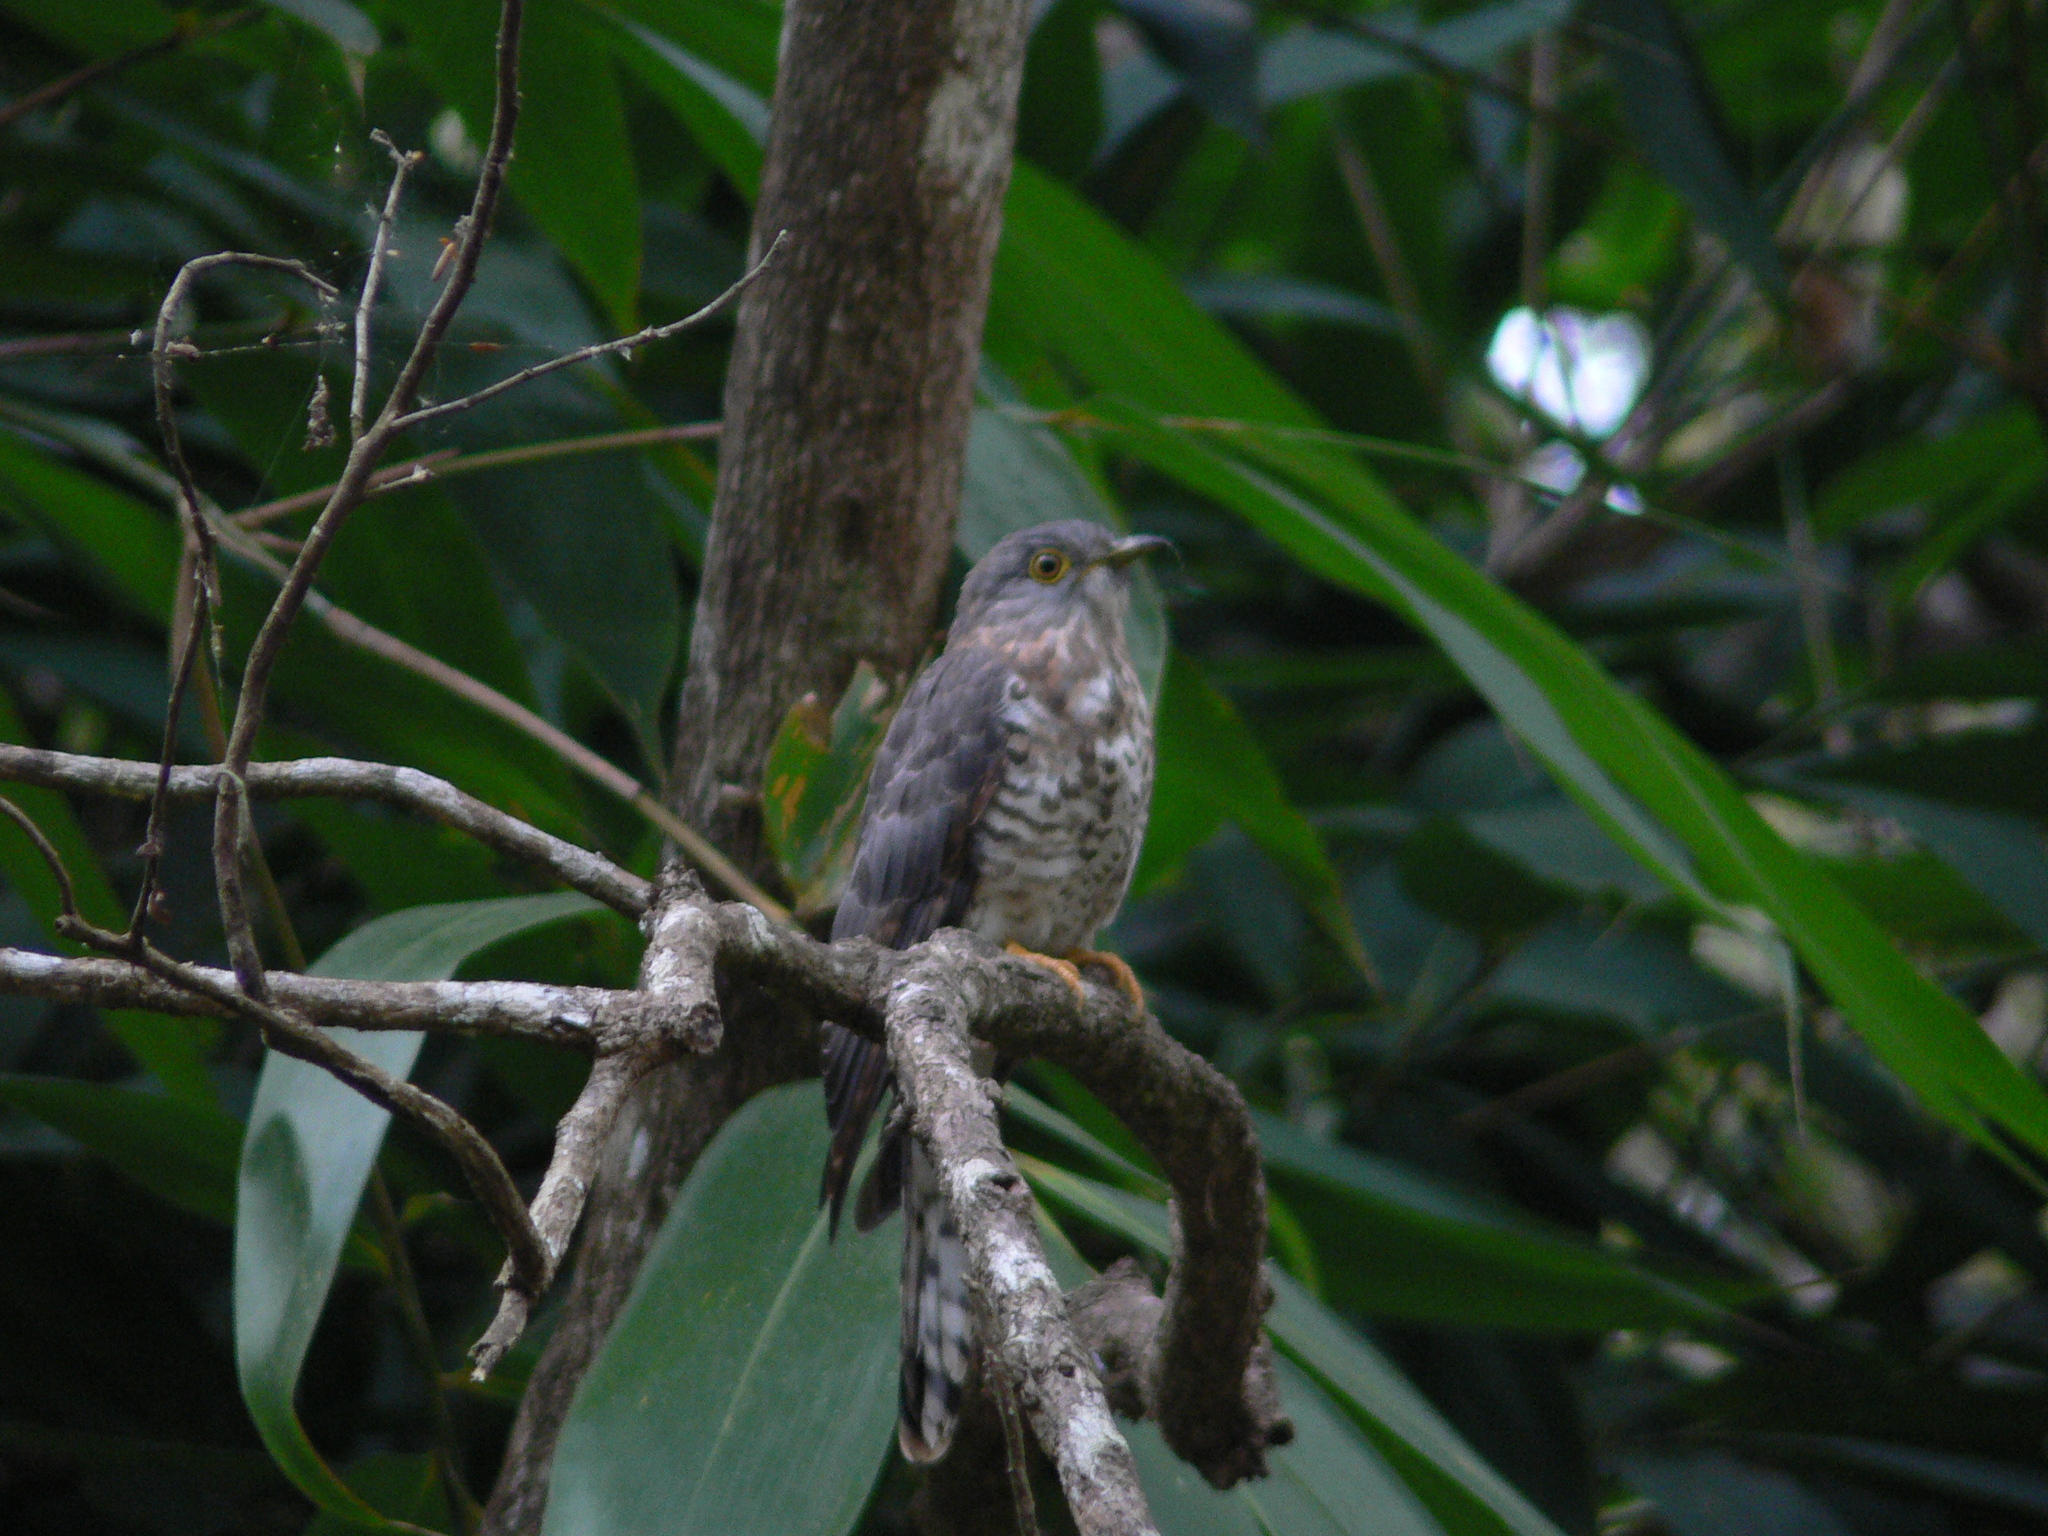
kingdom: Animalia
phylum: Chordata
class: Aves
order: Cuculiformes
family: Cuculidae
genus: Cuculus
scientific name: Cuculus sparverioides
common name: Large hawk cuckoo
